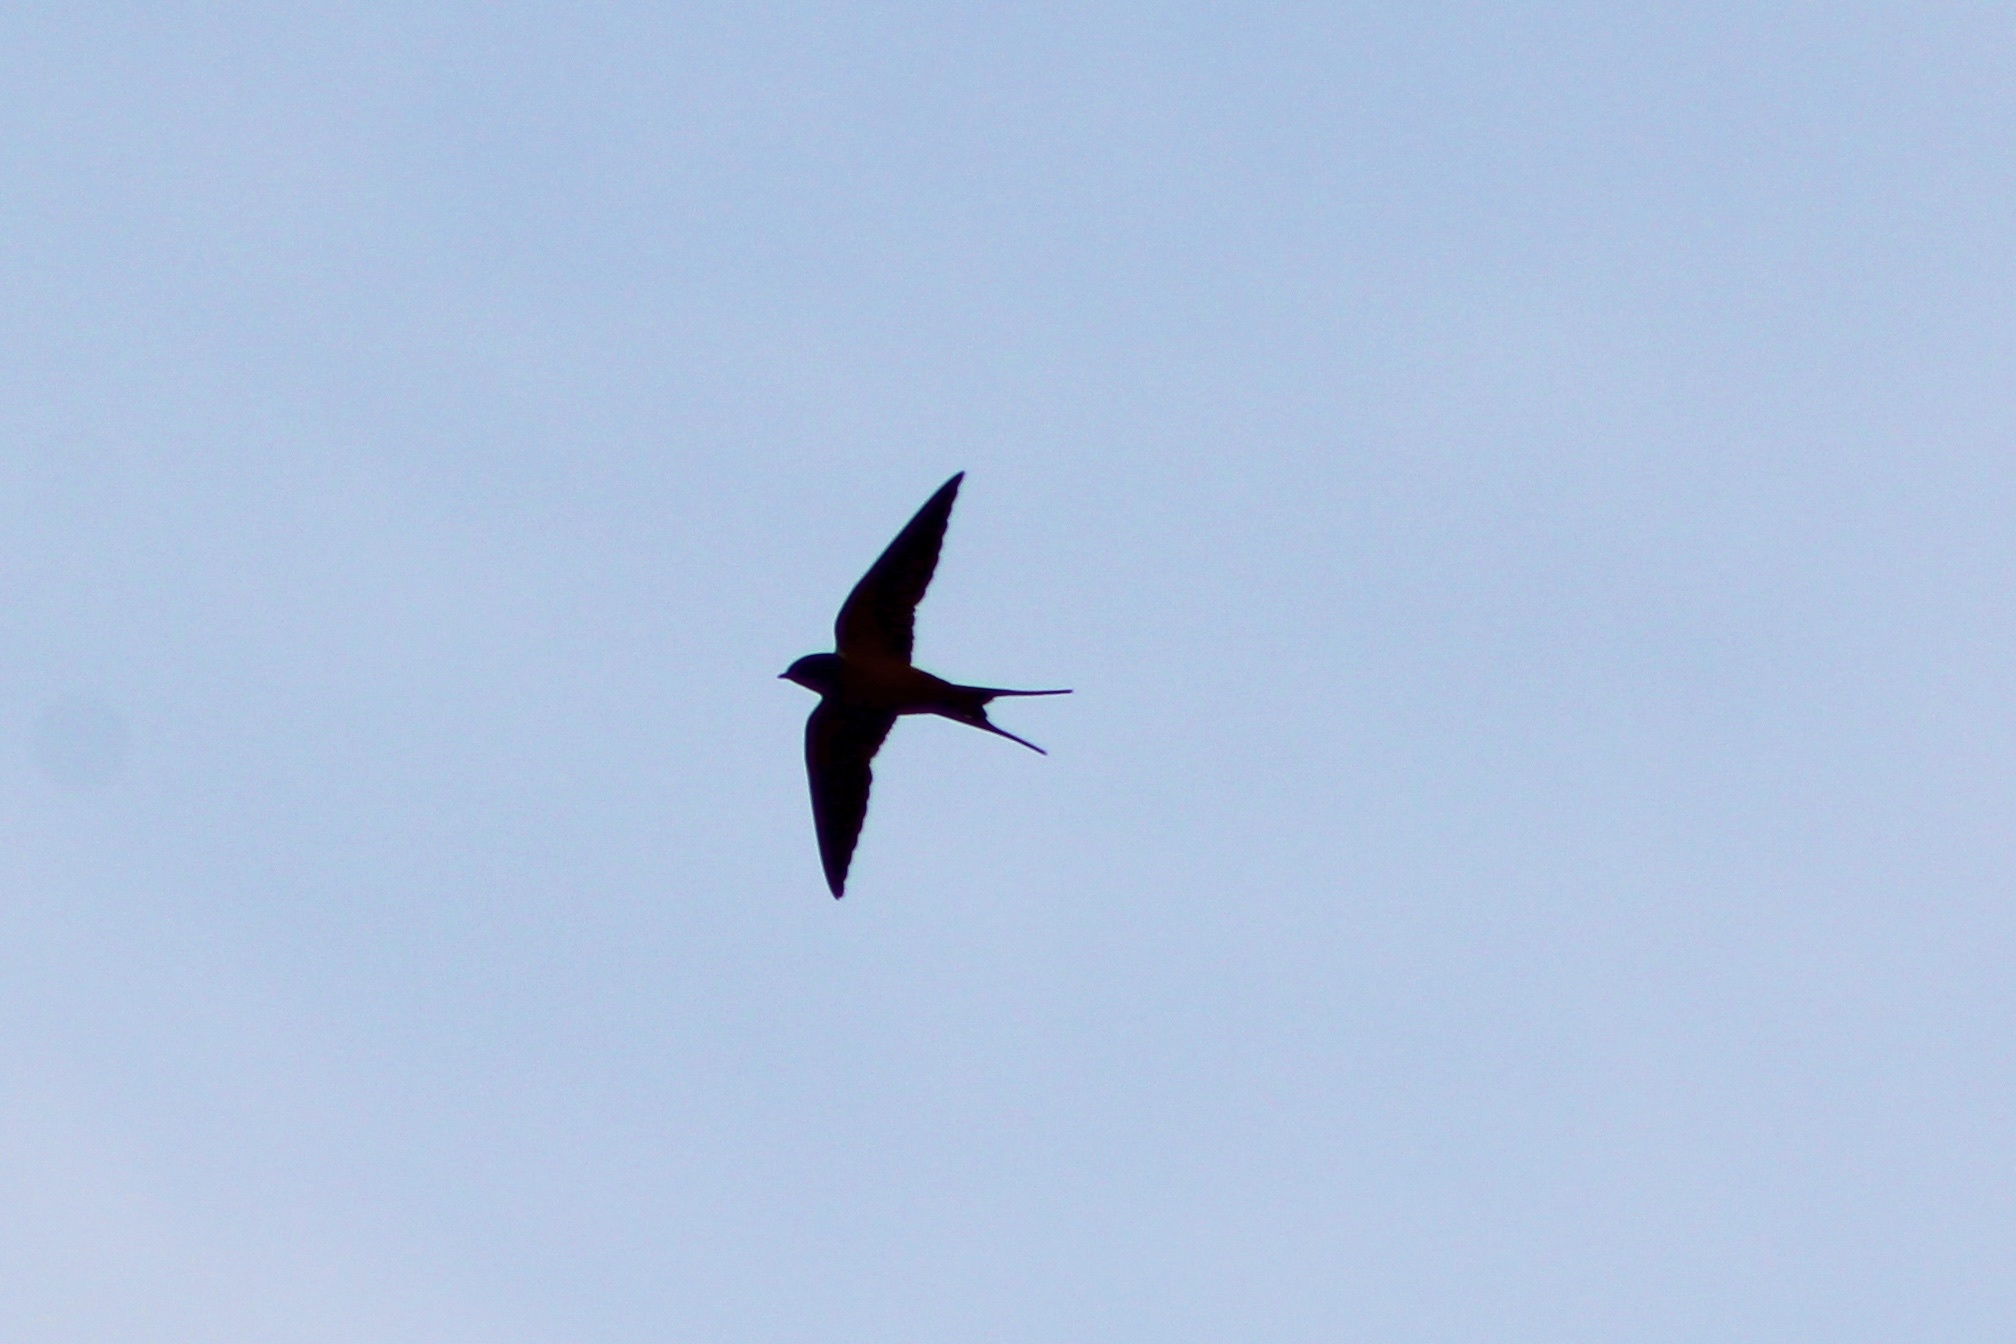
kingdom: Animalia
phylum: Chordata
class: Aves
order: Passeriformes
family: Hirundinidae
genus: Hirundo
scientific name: Hirundo rustica
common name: Barn swallow
